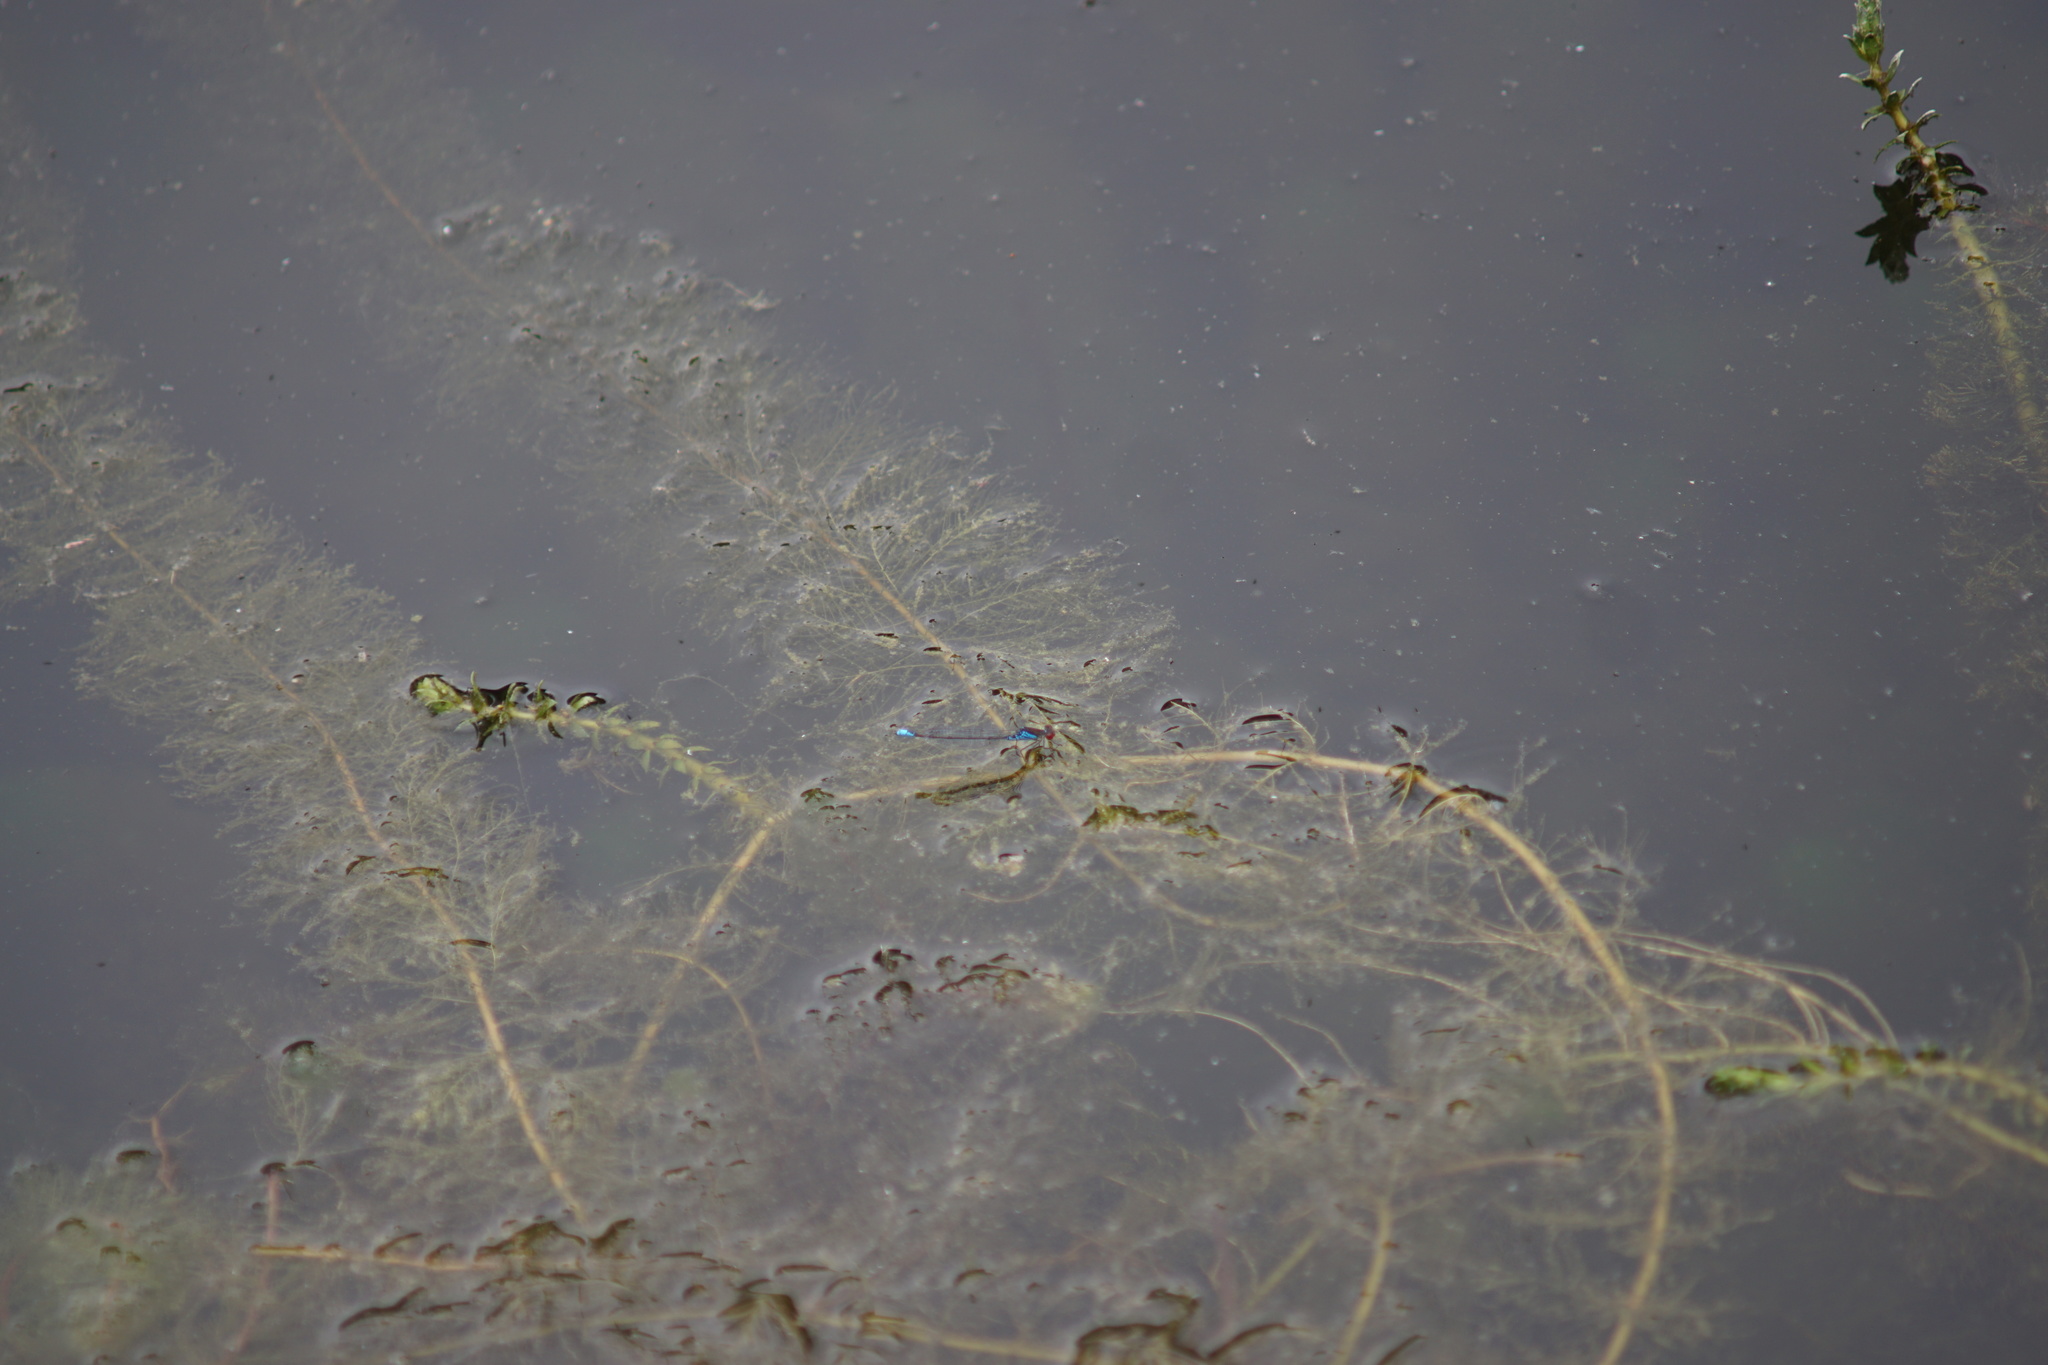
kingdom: Animalia
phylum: Arthropoda
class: Insecta
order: Odonata
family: Coenagrionidae
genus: Erythromma
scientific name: Erythromma viridulum
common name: Small red-eyed damselfly
